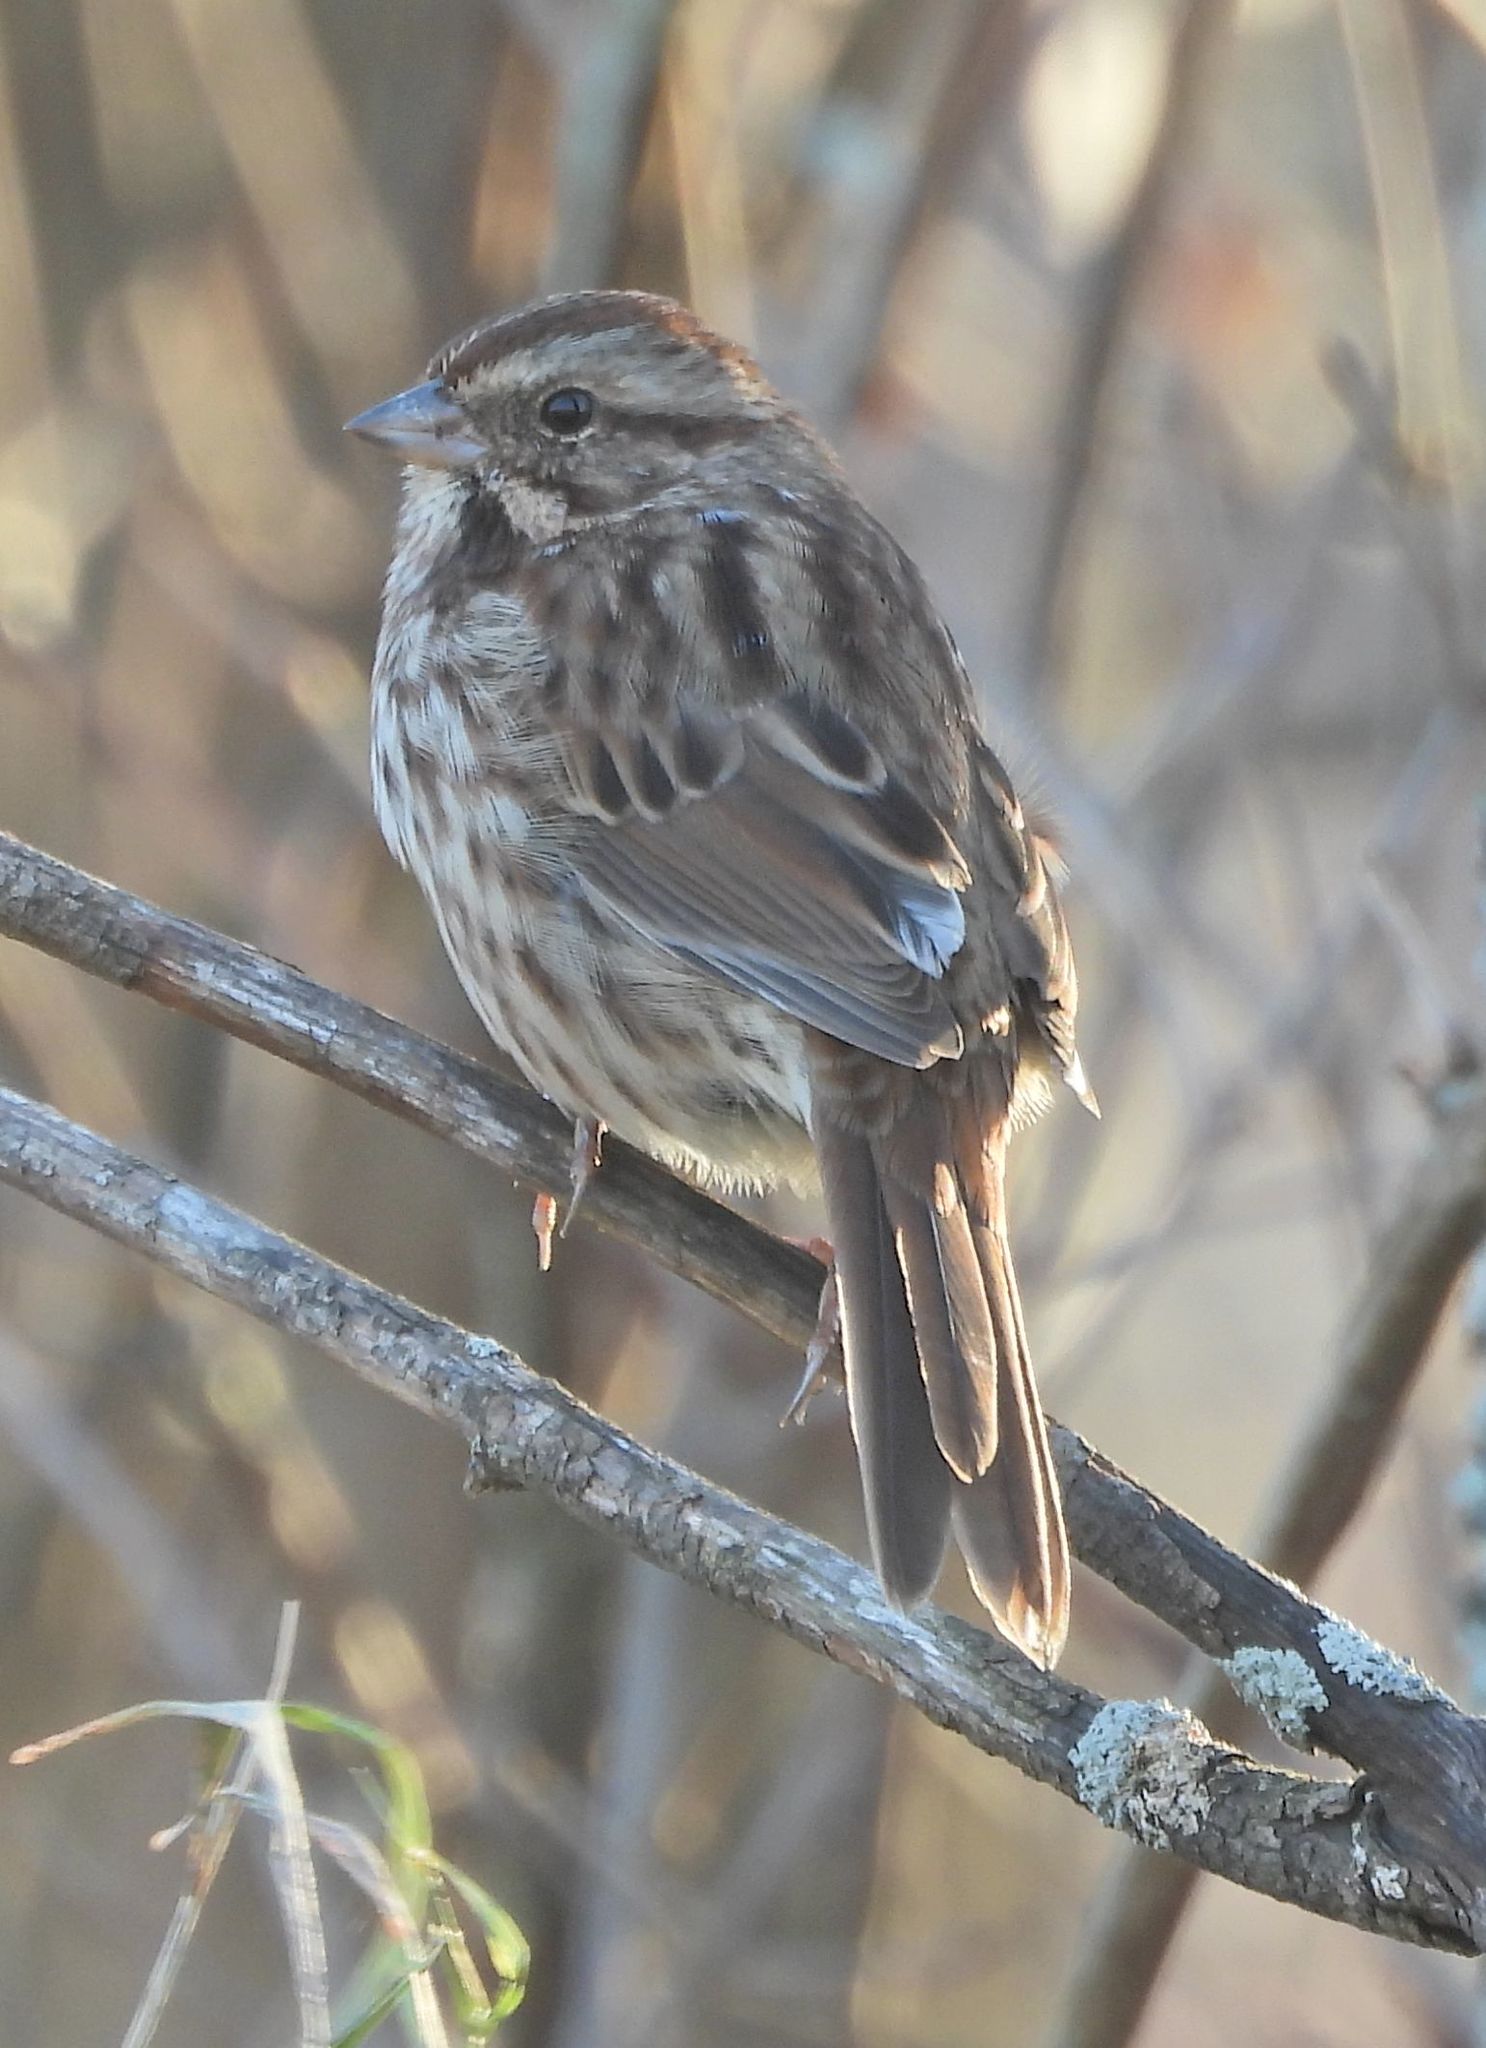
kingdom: Animalia
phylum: Chordata
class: Aves
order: Passeriformes
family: Passerellidae
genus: Melospiza
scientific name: Melospiza melodia
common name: Song sparrow
